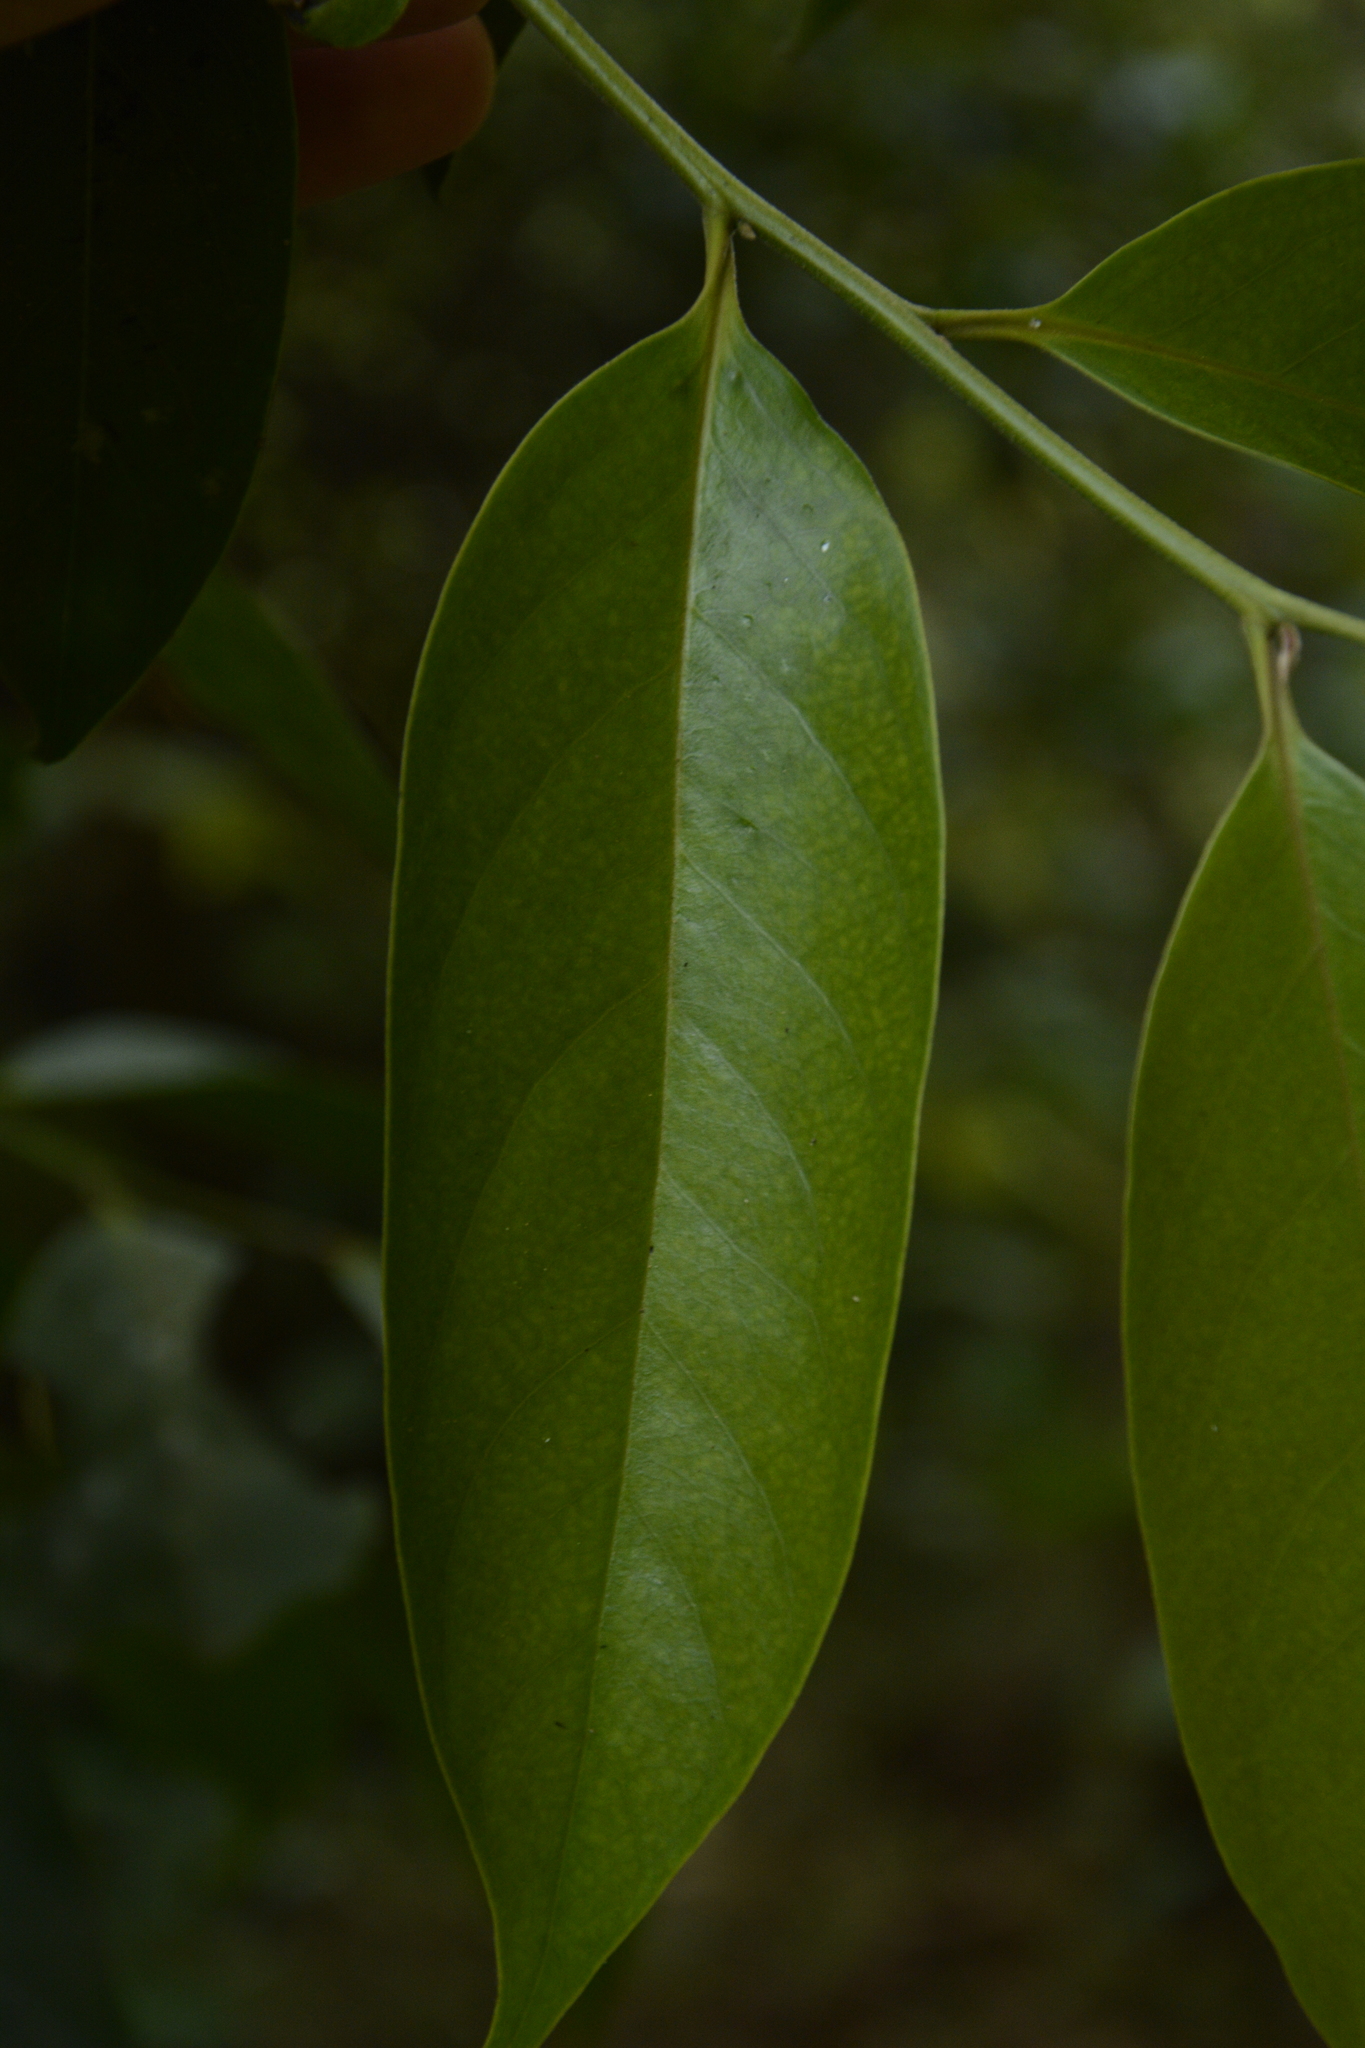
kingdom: Plantae
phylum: Tracheophyta
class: Magnoliopsida
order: Ericales
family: Ebenaceae
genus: Diospyros
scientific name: Diospyros nilagirica
